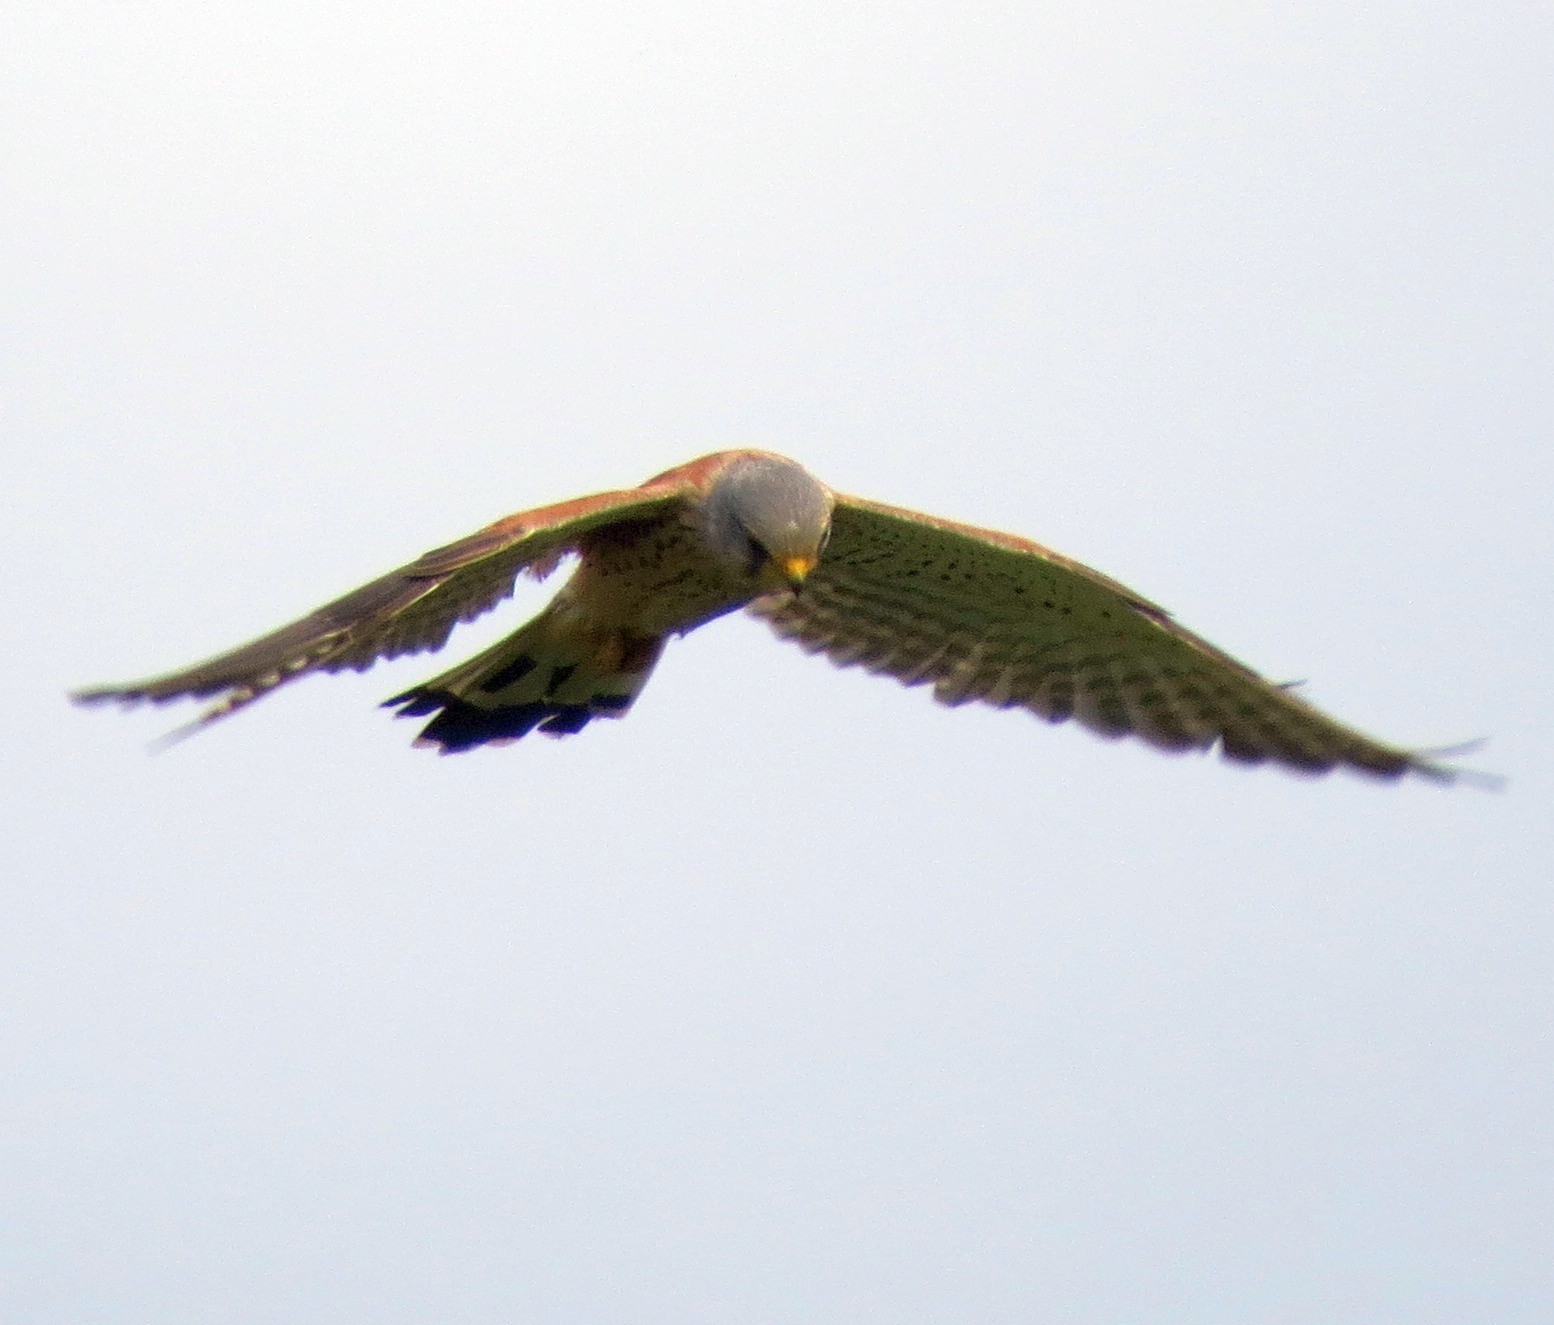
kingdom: Animalia
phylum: Chordata
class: Aves
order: Falconiformes
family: Falconidae
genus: Falco
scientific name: Falco tinnunculus
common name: Common kestrel
